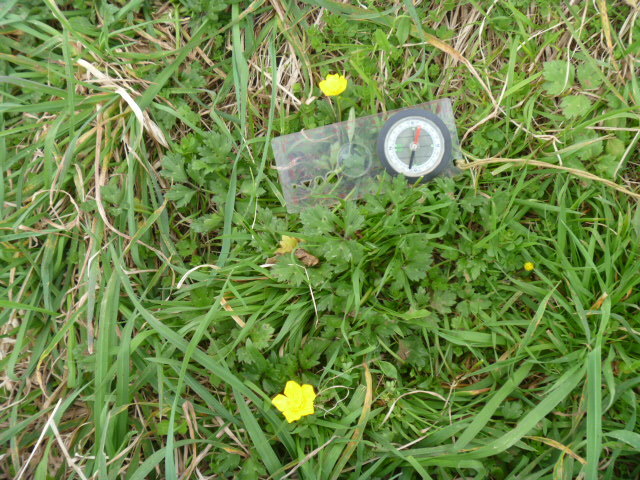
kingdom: Plantae
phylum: Tracheophyta
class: Magnoliopsida
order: Ranunculales
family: Ranunculaceae
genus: Ranunculus
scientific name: Ranunculus repens
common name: Creeping buttercup
